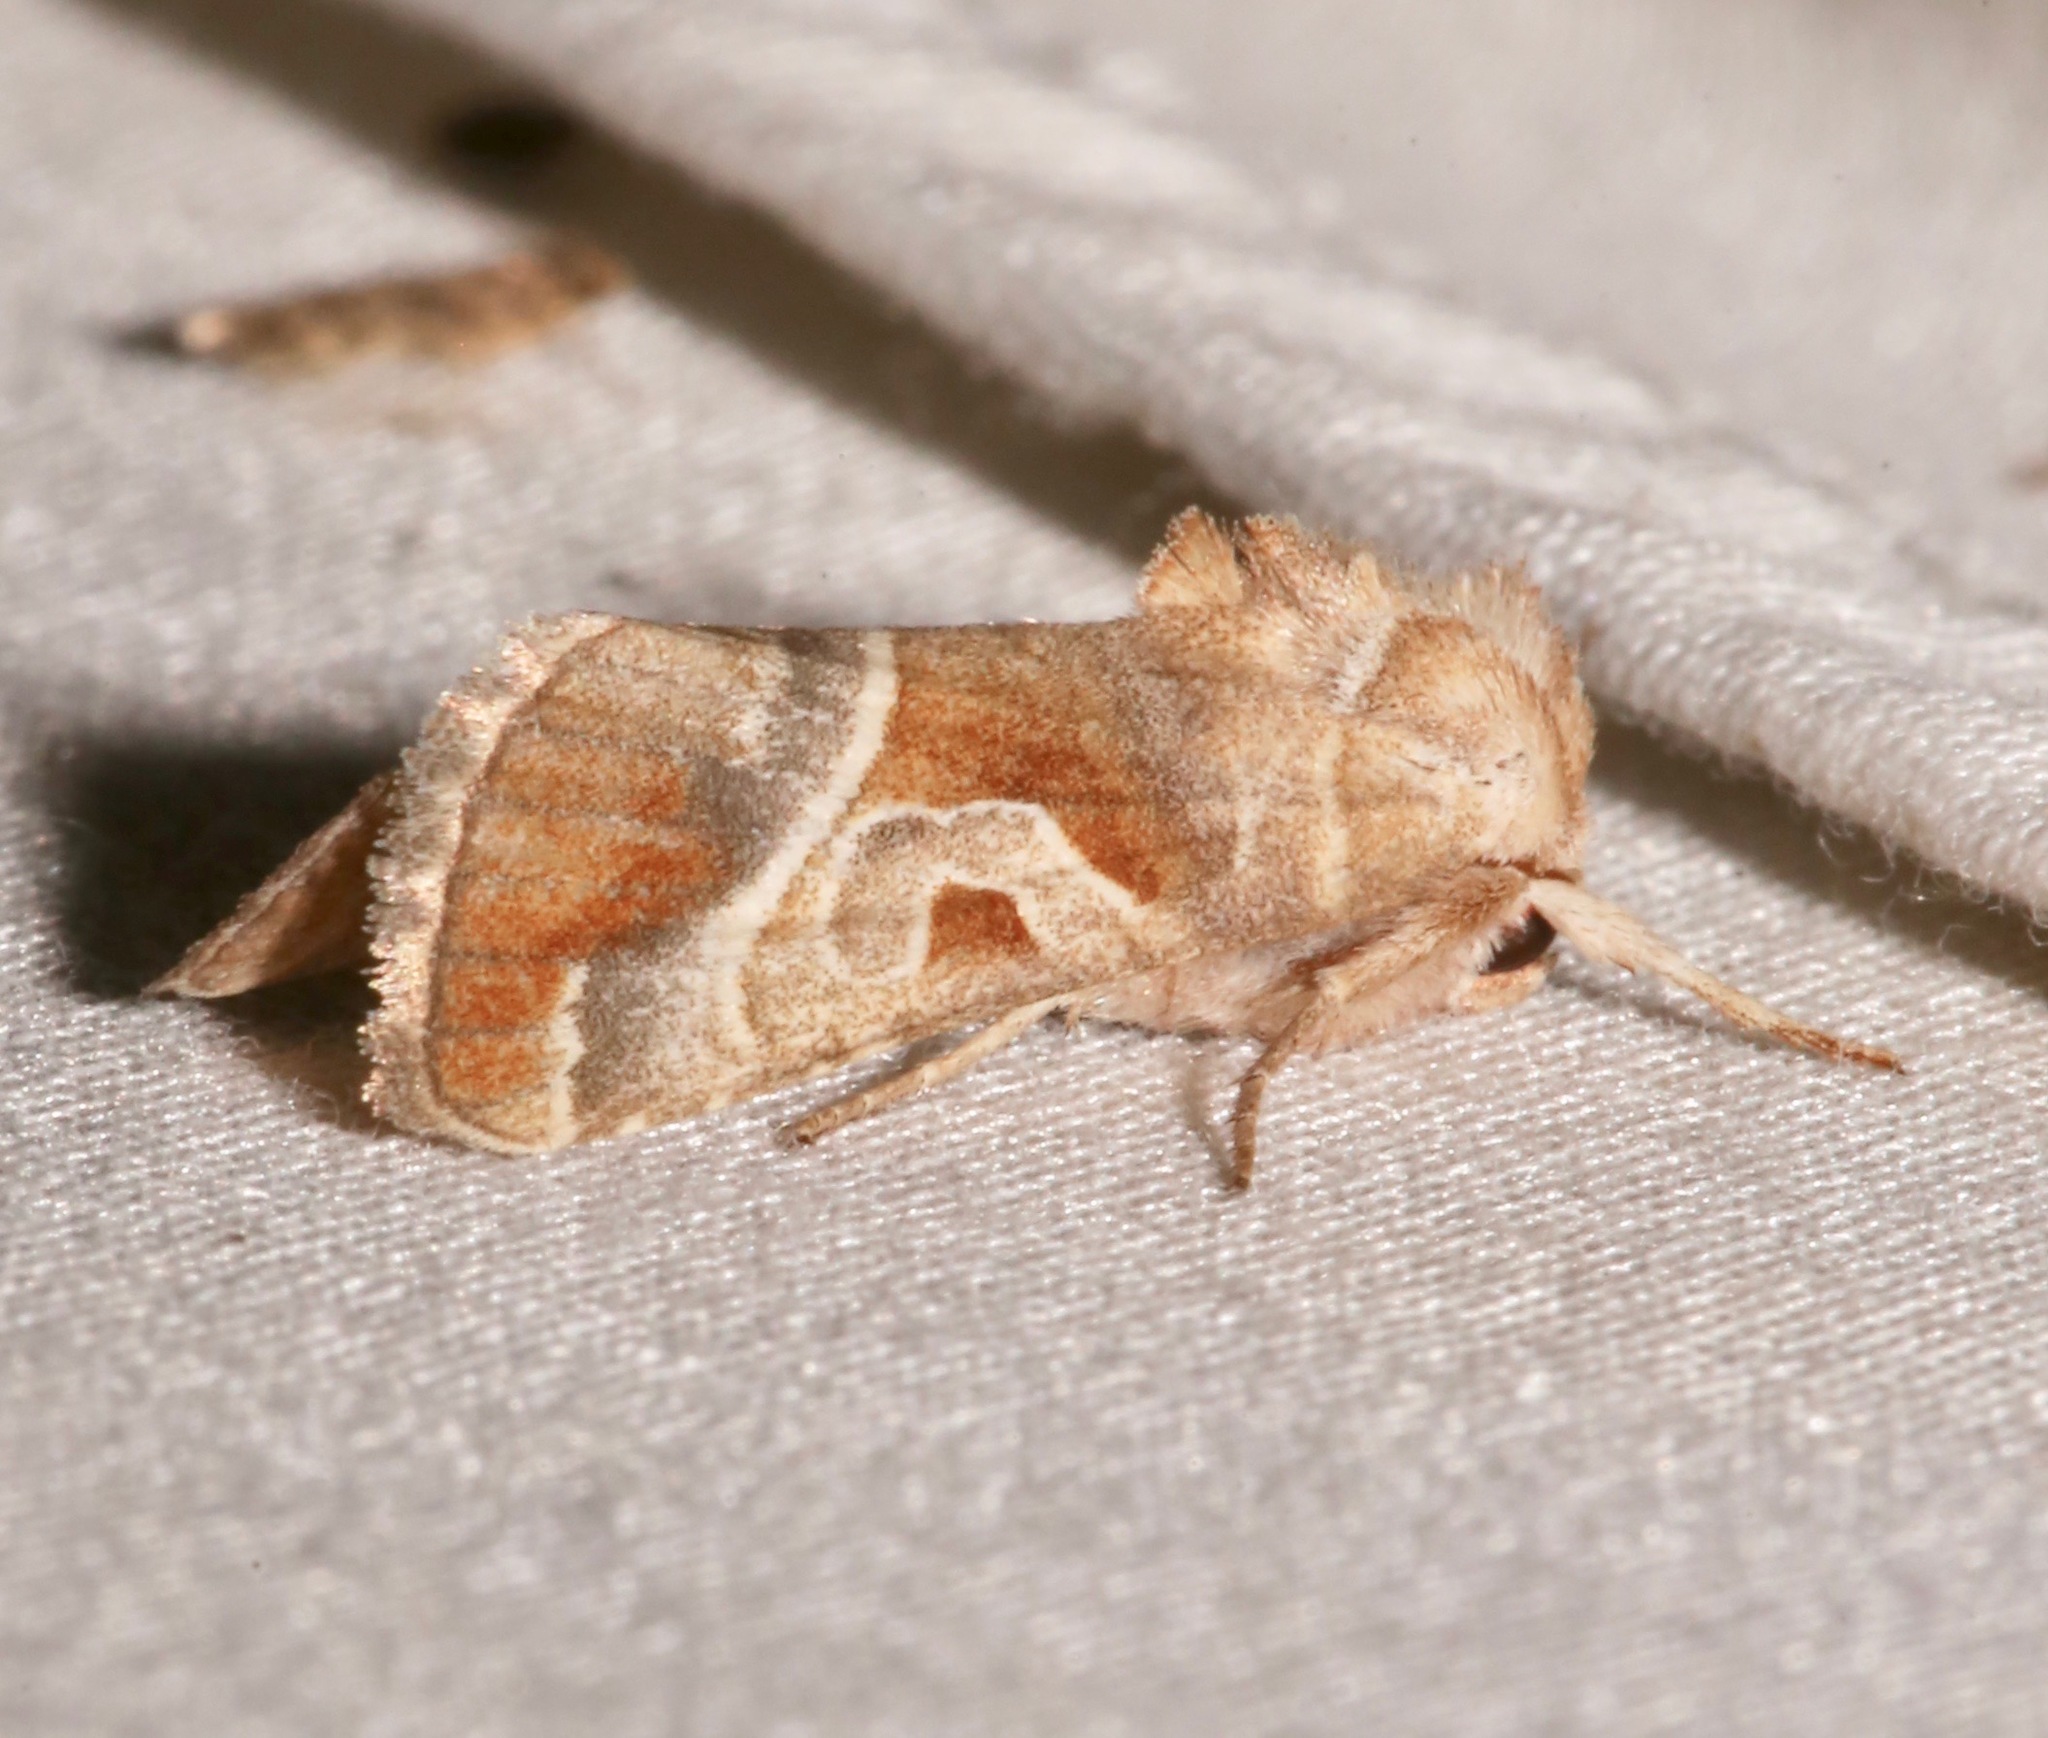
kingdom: Animalia
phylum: Arthropoda
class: Insecta
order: Lepidoptera
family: Noctuidae
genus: Hexorthodes
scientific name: Hexorthodes accurata
